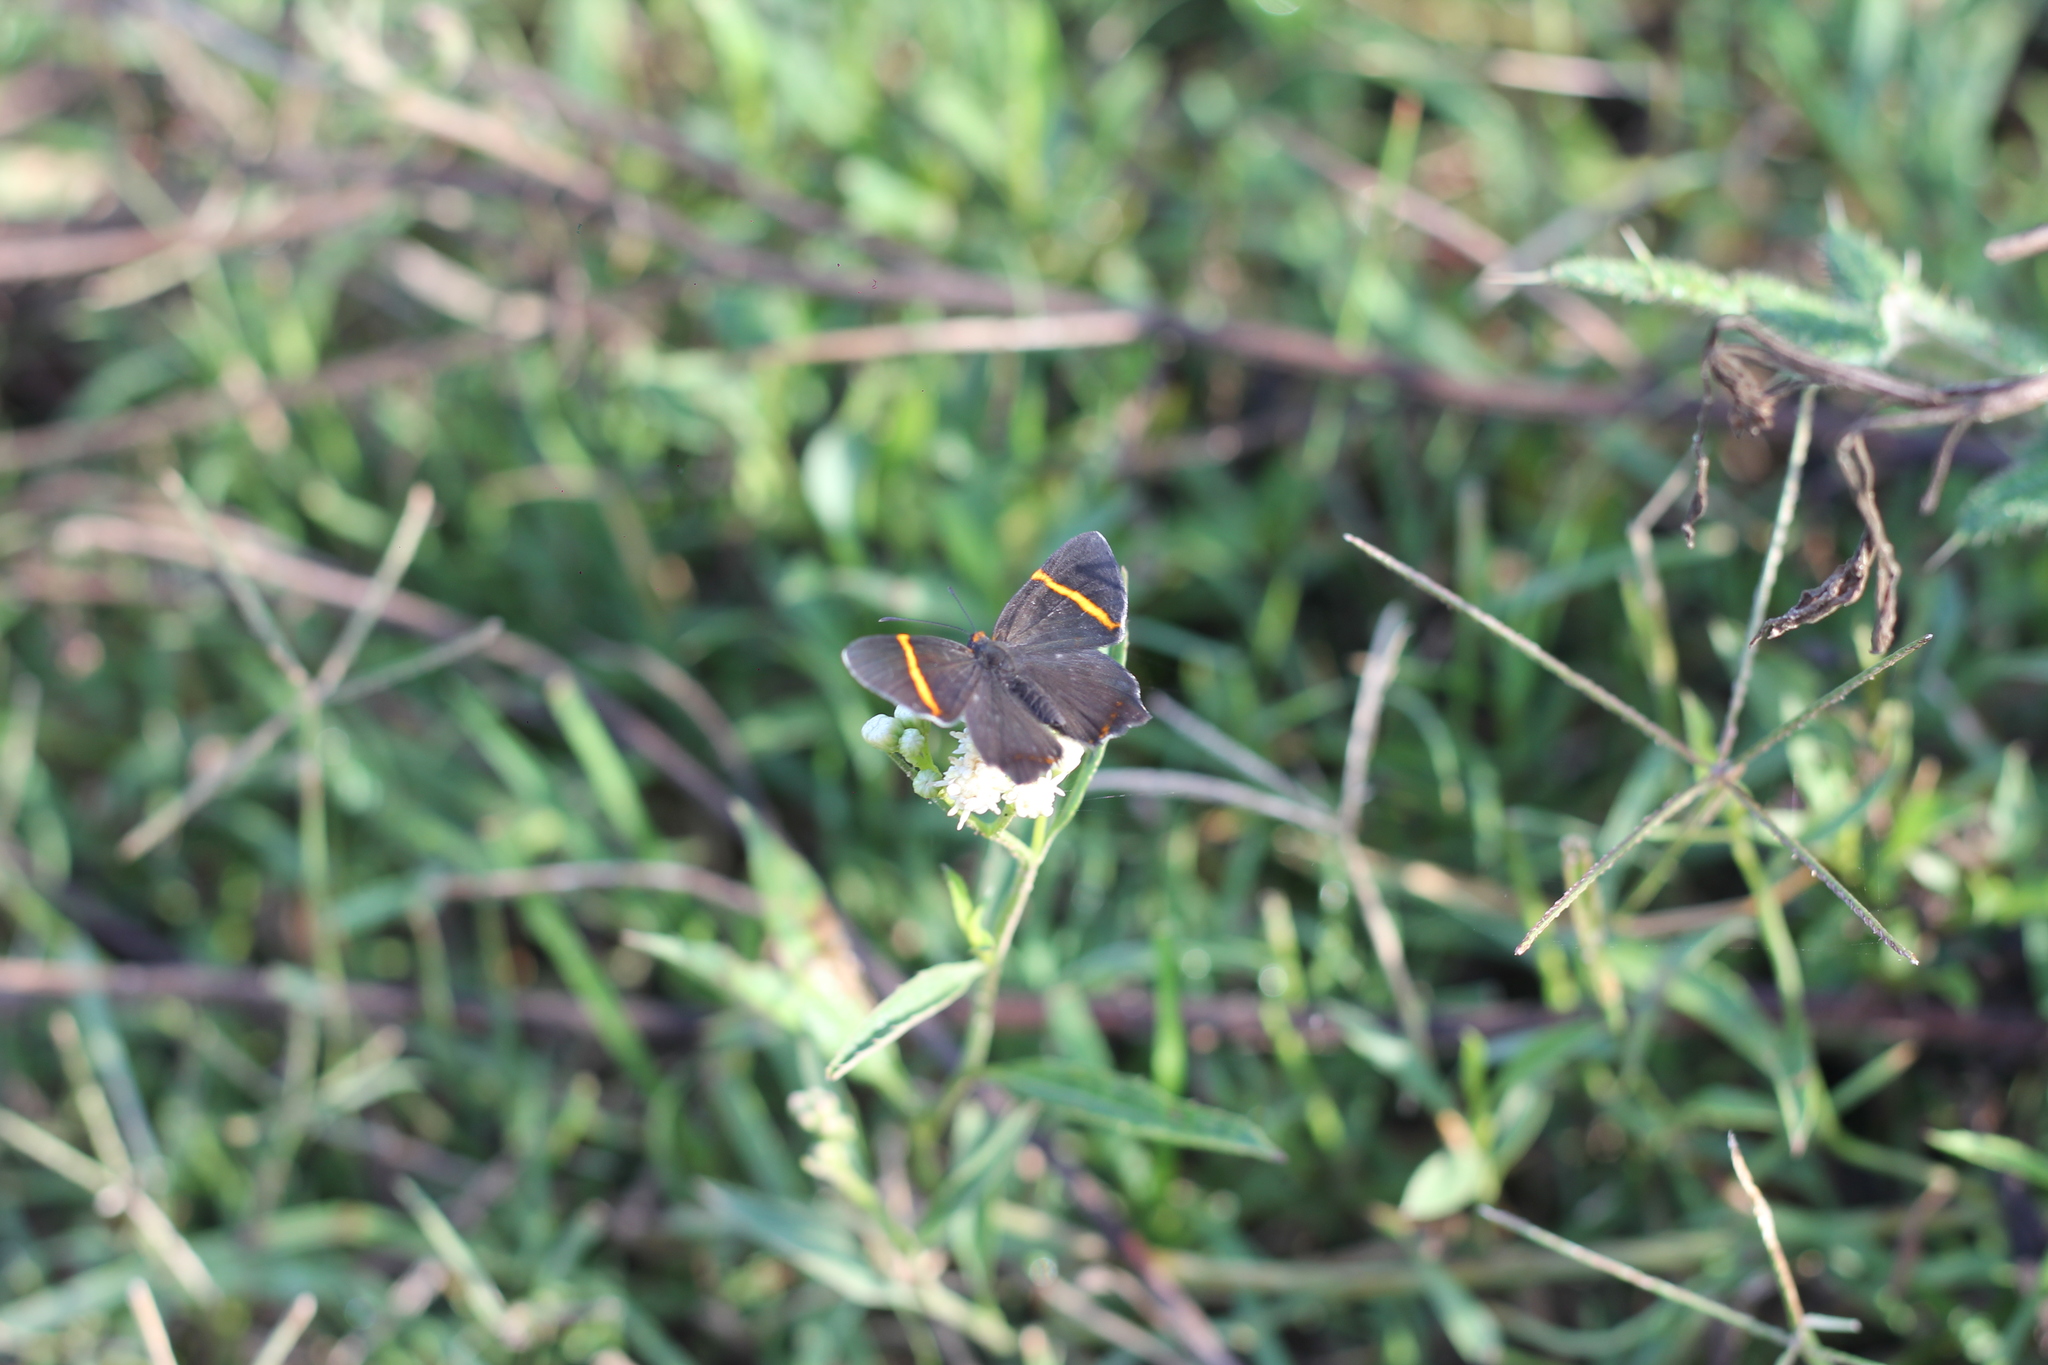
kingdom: Animalia
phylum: Arthropoda
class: Insecta
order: Lepidoptera
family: Riodinidae
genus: Riodina
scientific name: Riodina lysippoides
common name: Little dancer metalmark
